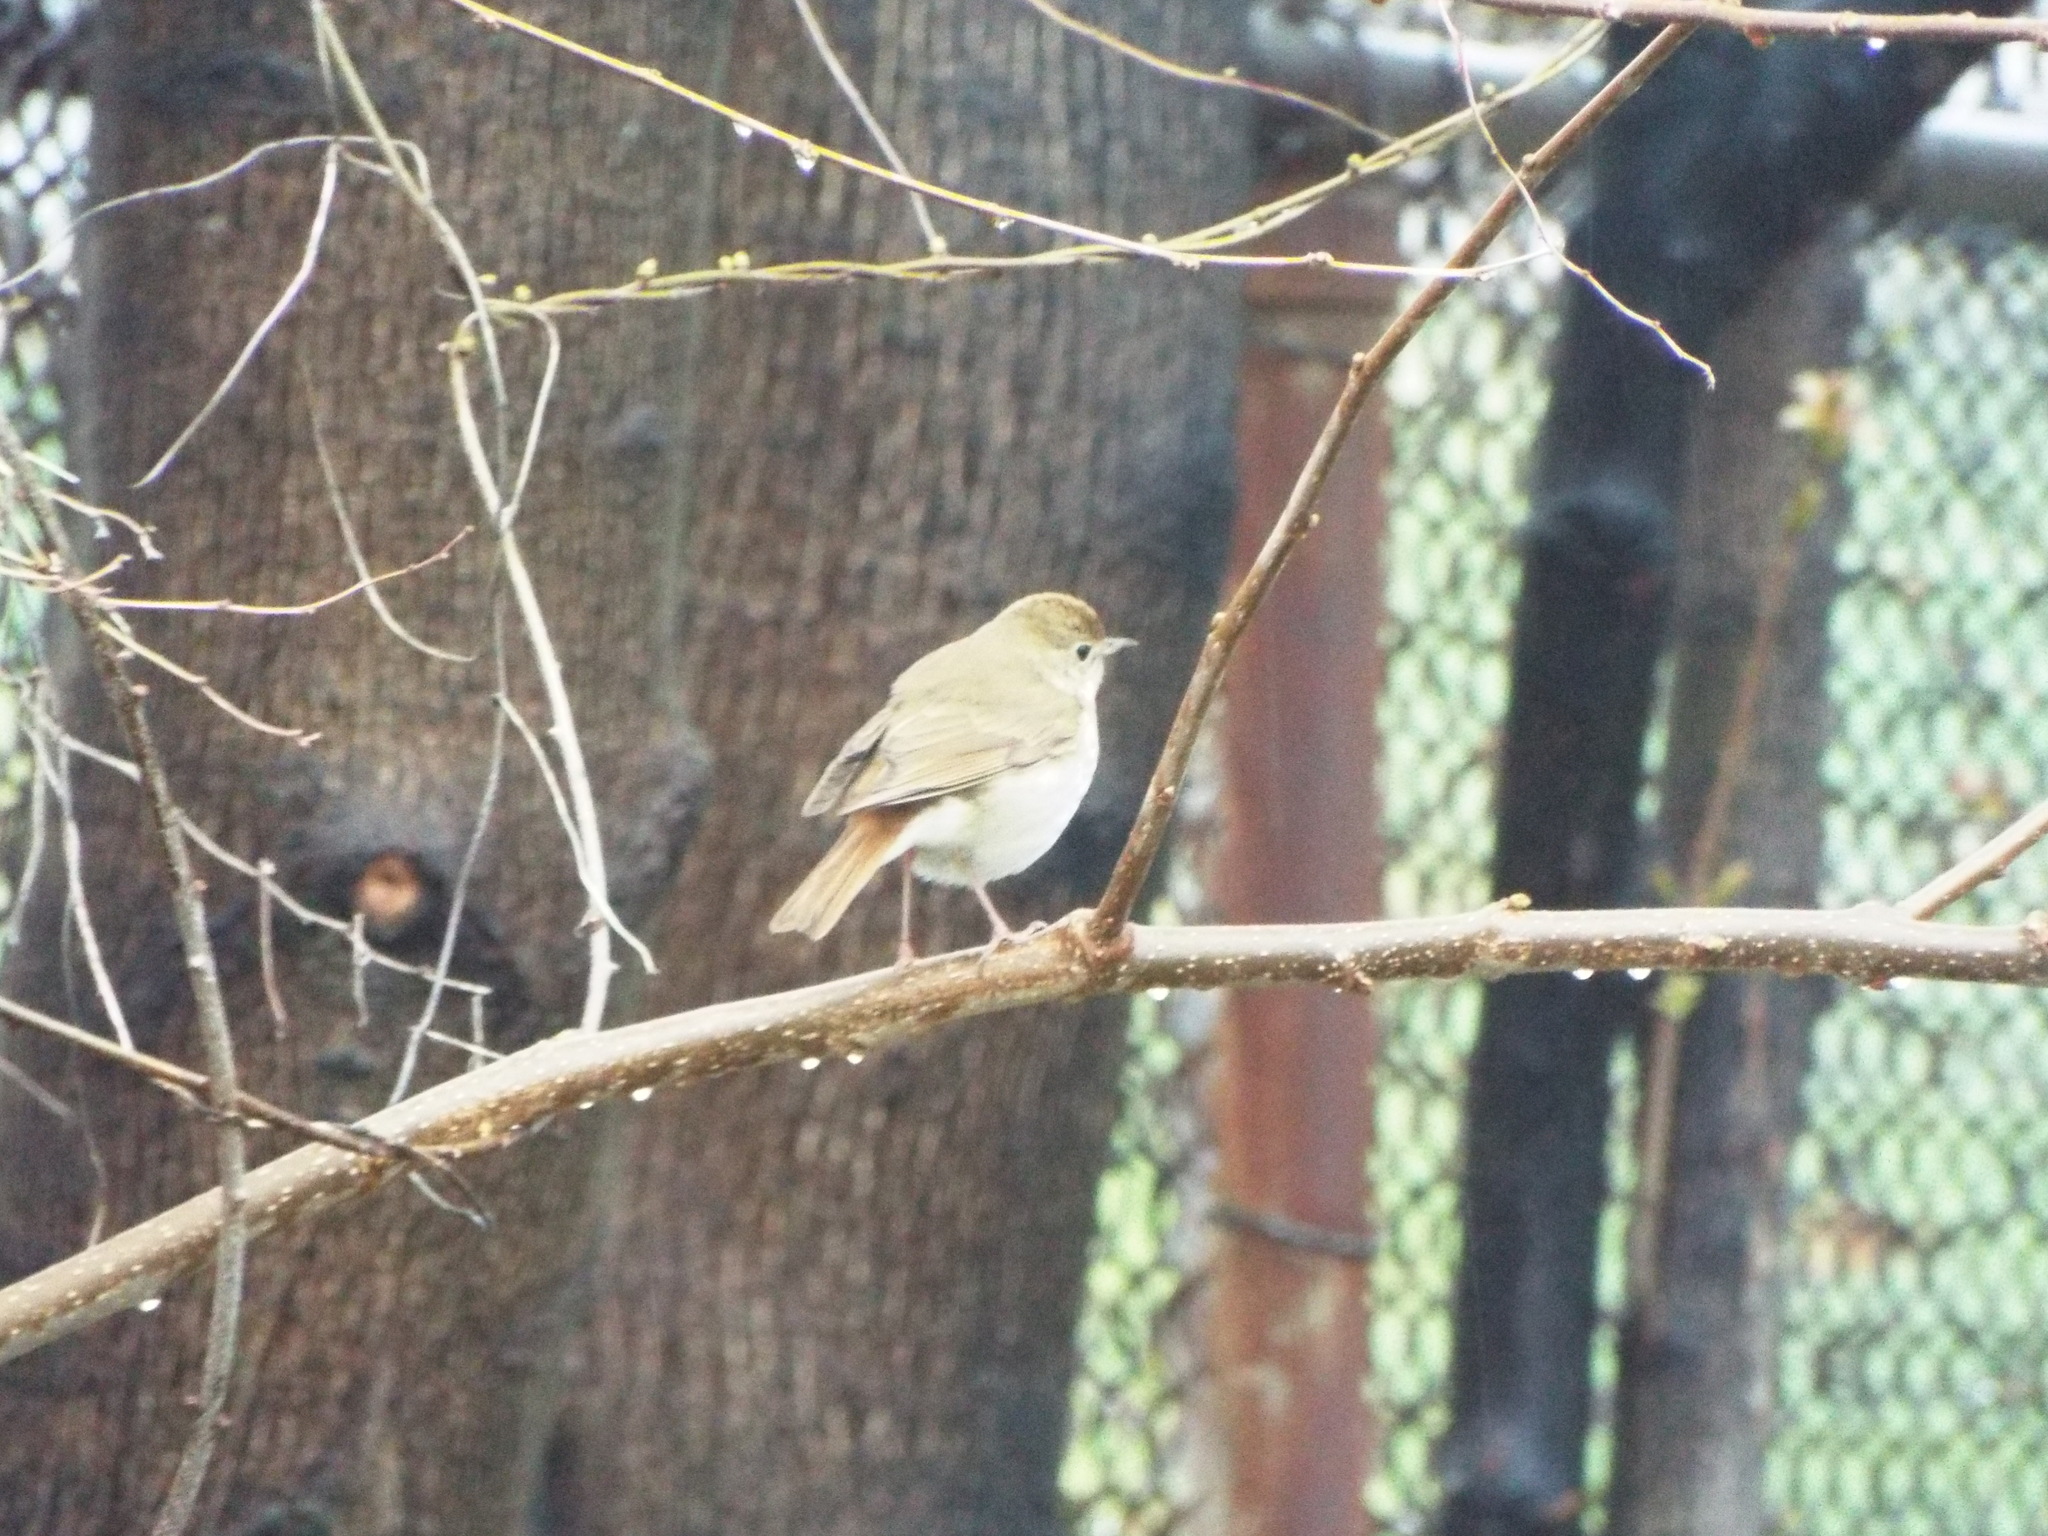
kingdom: Animalia
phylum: Chordata
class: Aves
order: Passeriformes
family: Turdidae
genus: Catharus
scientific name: Catharus guttatus
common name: Hermit thrush
